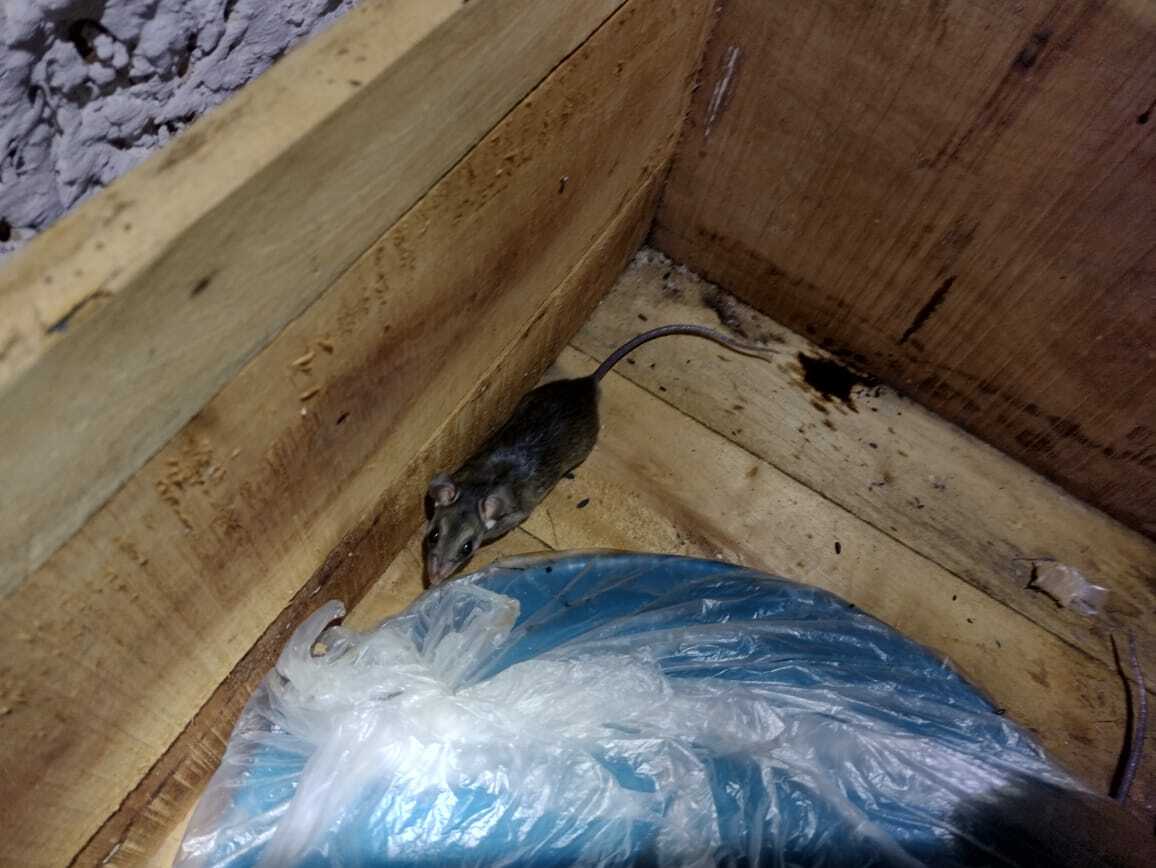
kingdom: Animalia
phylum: Chordata
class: Mammalia
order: Rodentia
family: Cricetidae
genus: Ototylomys
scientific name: Ototylomys phyllotis
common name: Big-eared climbing rat
